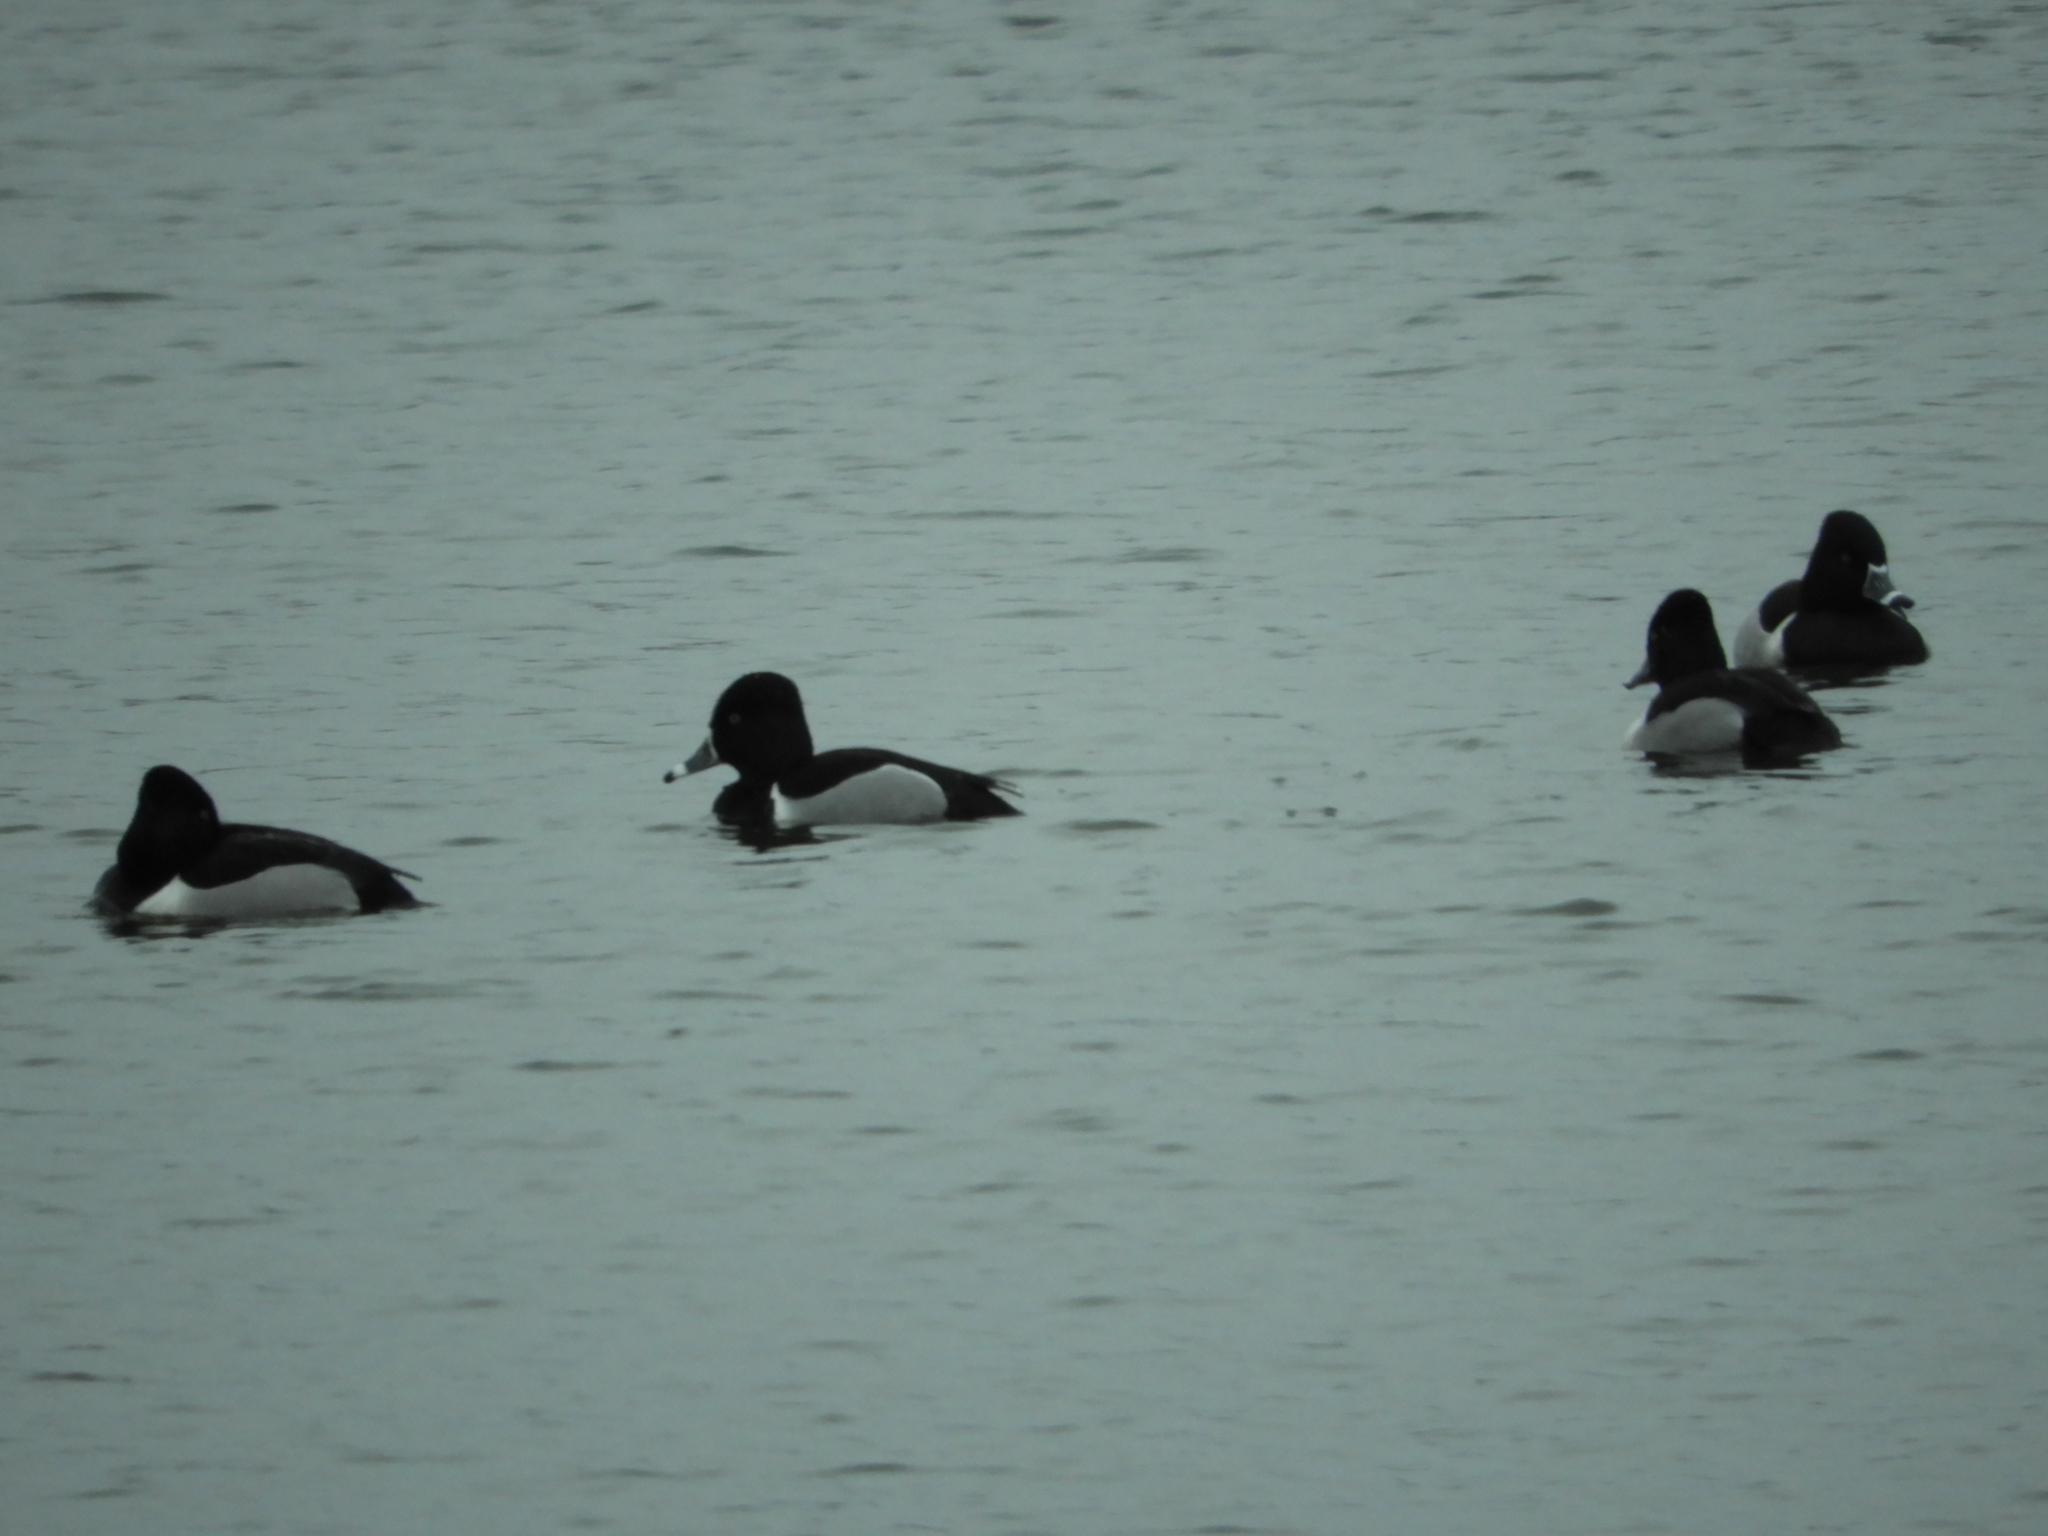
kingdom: Animalia
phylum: Chordata
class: Aves
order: Anseriformes
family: Anatidae
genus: Aythya
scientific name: Aythya collaris
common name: Ring-necked duck
